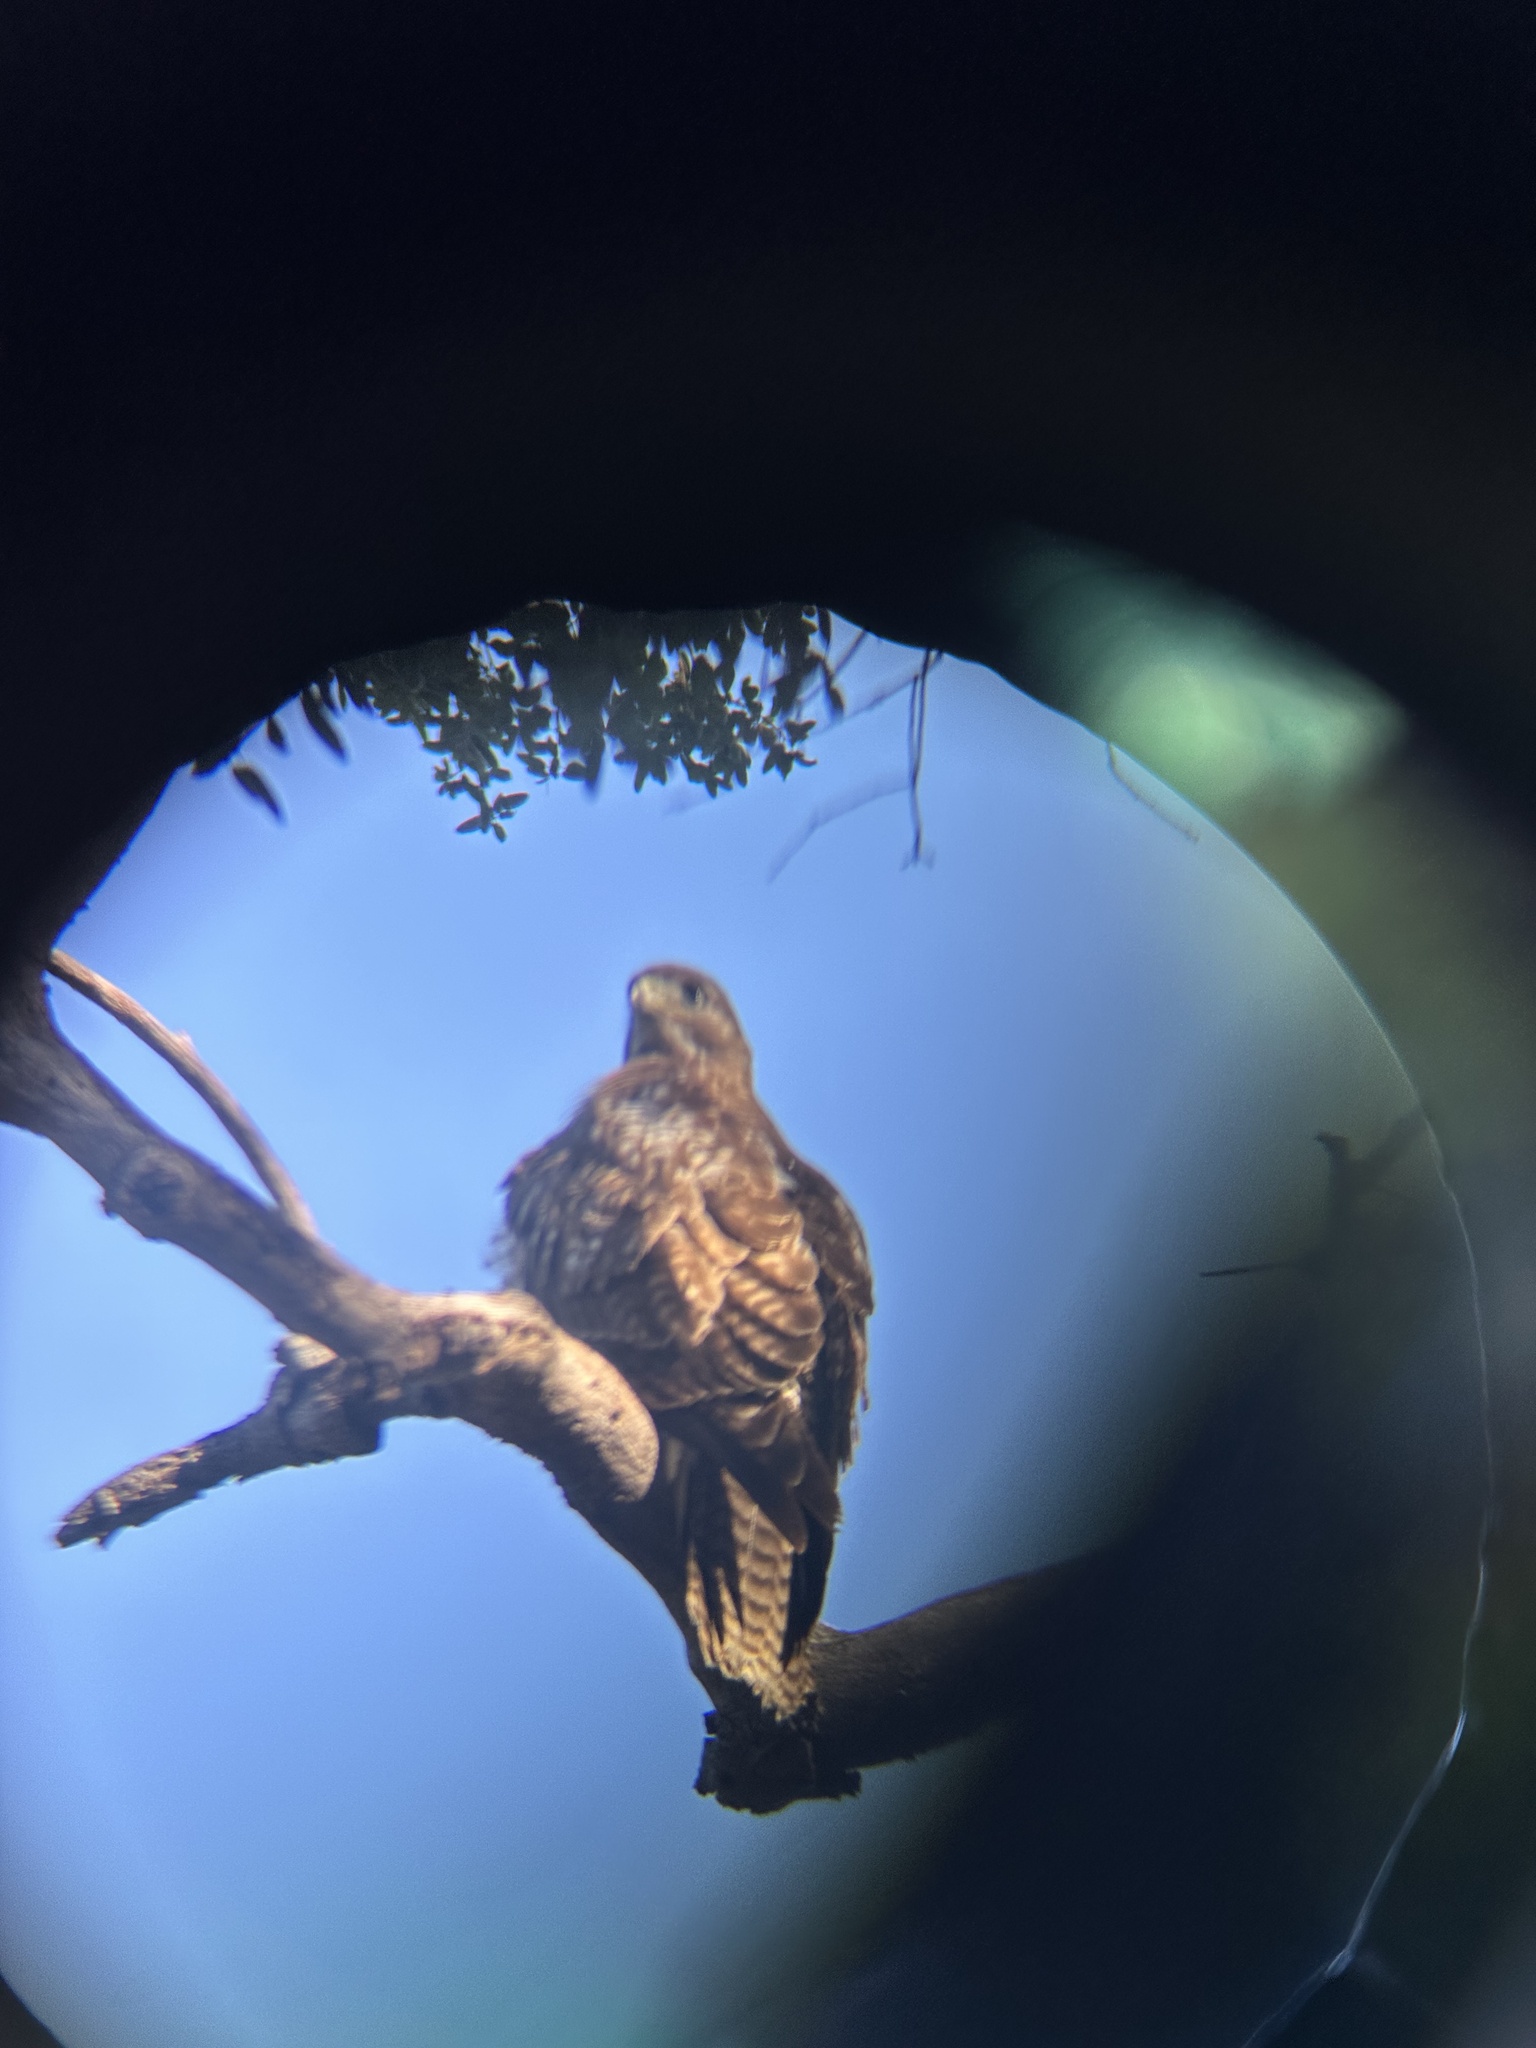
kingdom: Animalia
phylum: Chordata
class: Aves
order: Accipitriformes
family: Accipitridae
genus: Buteo
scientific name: Buteo jamaicensis
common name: Red-tailed hawk
